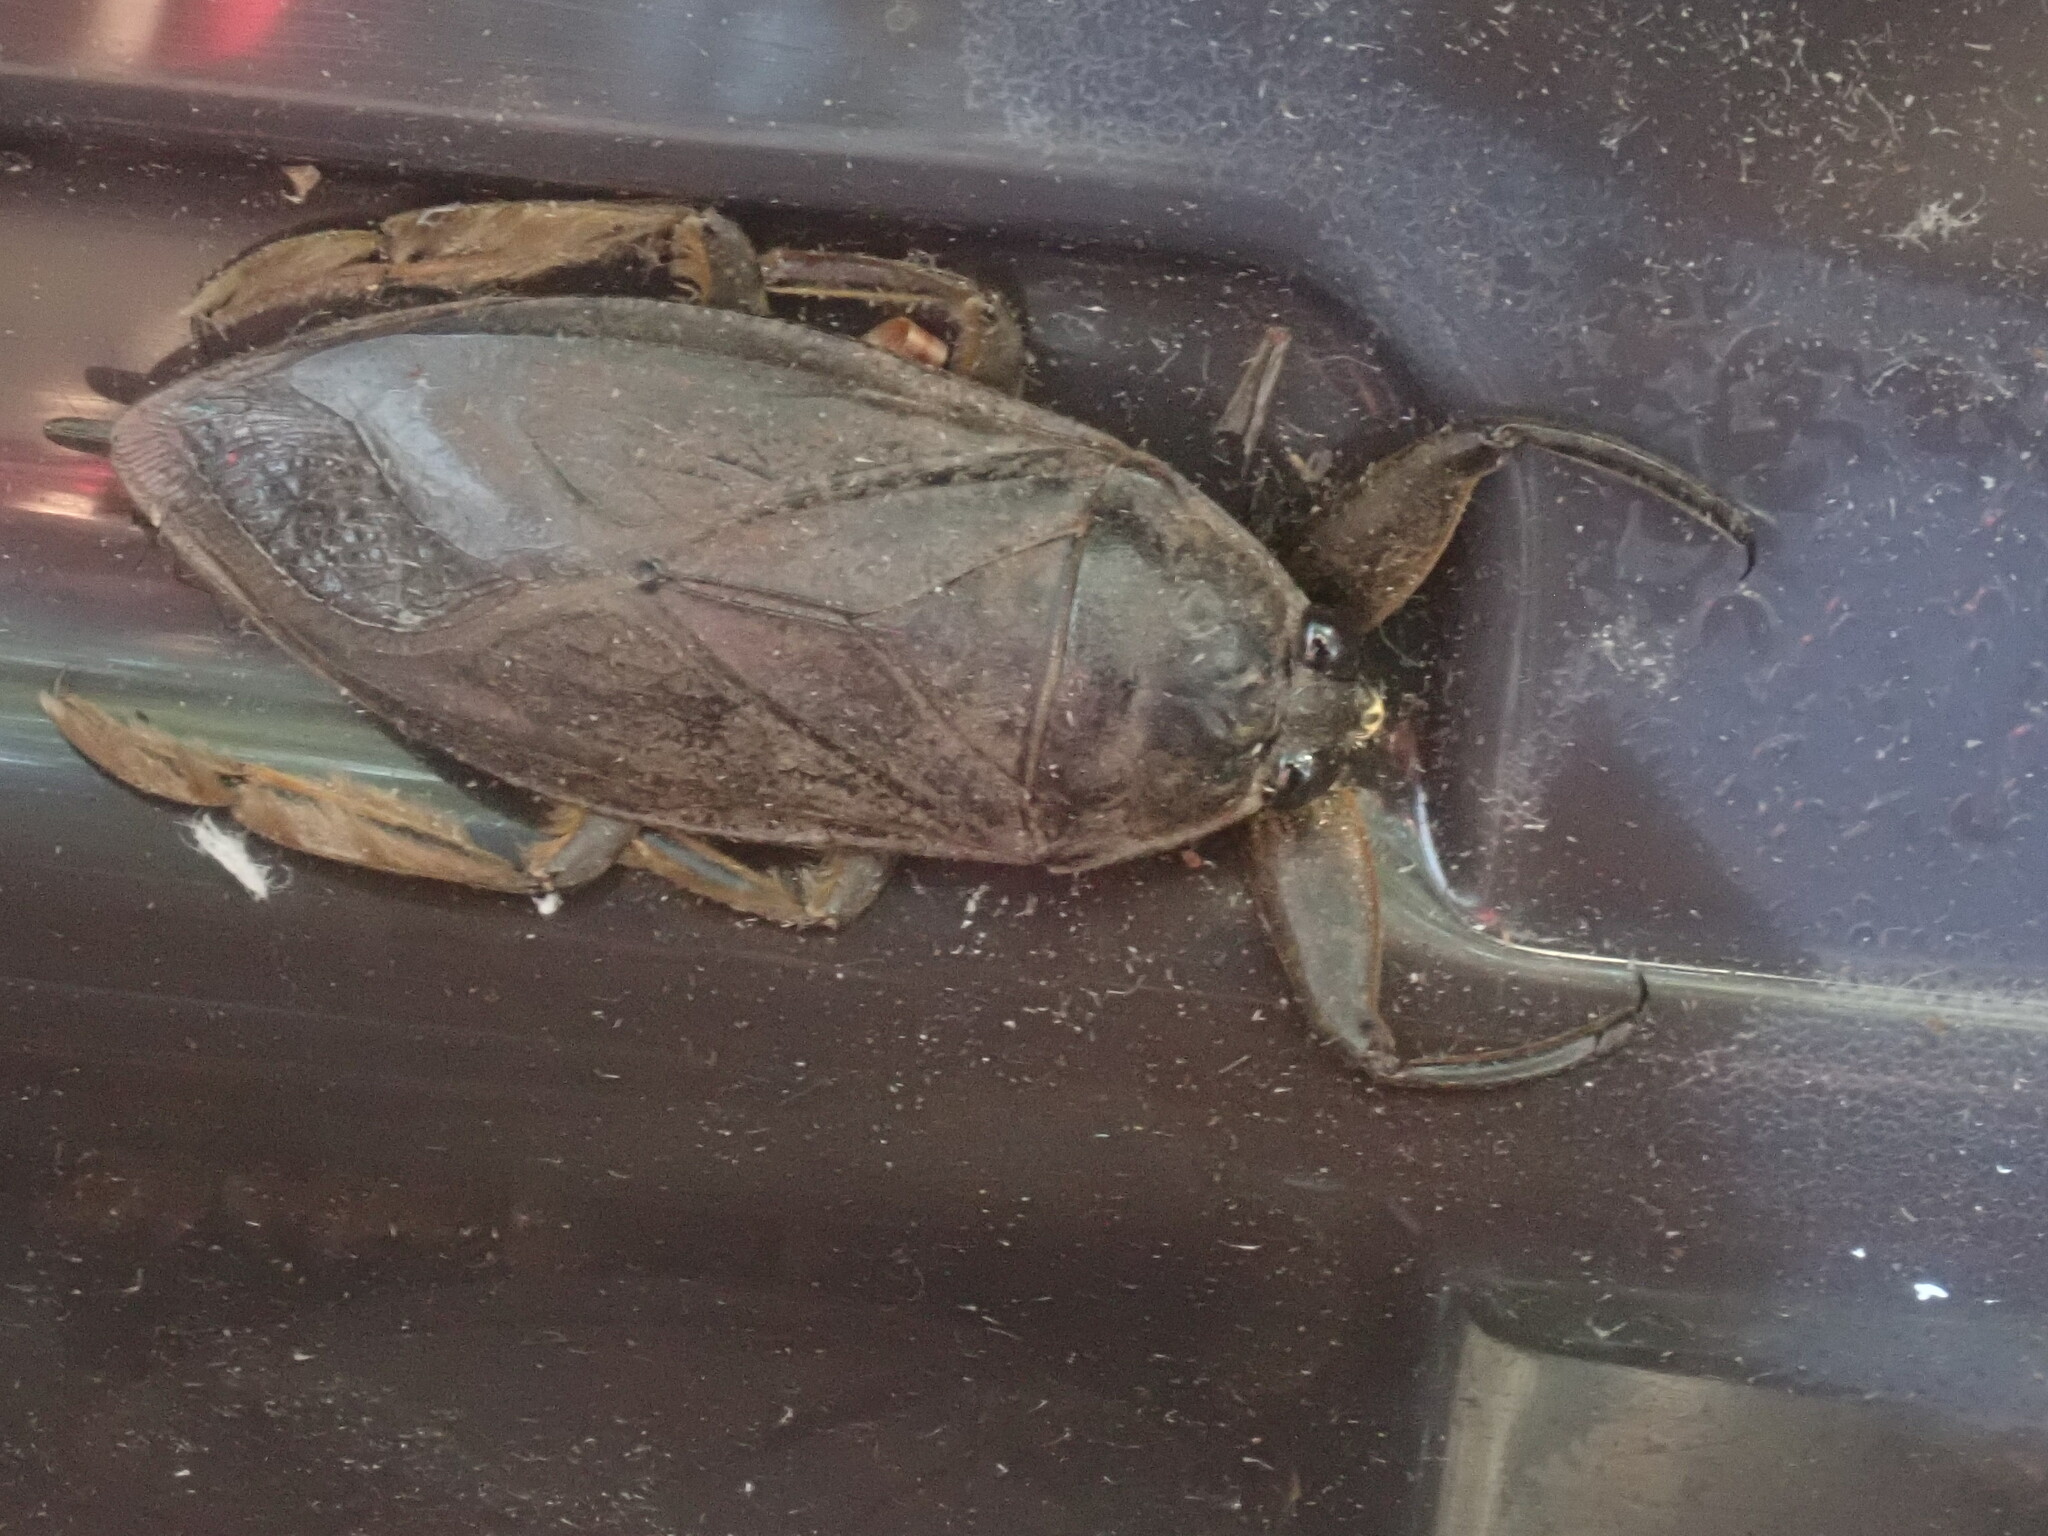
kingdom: Animalia
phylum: Arthropoda
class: Insecta
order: Hemiptera
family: Belostomatidae
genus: Lethocerus
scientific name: Lethocerus americanus
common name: Giant water bug
